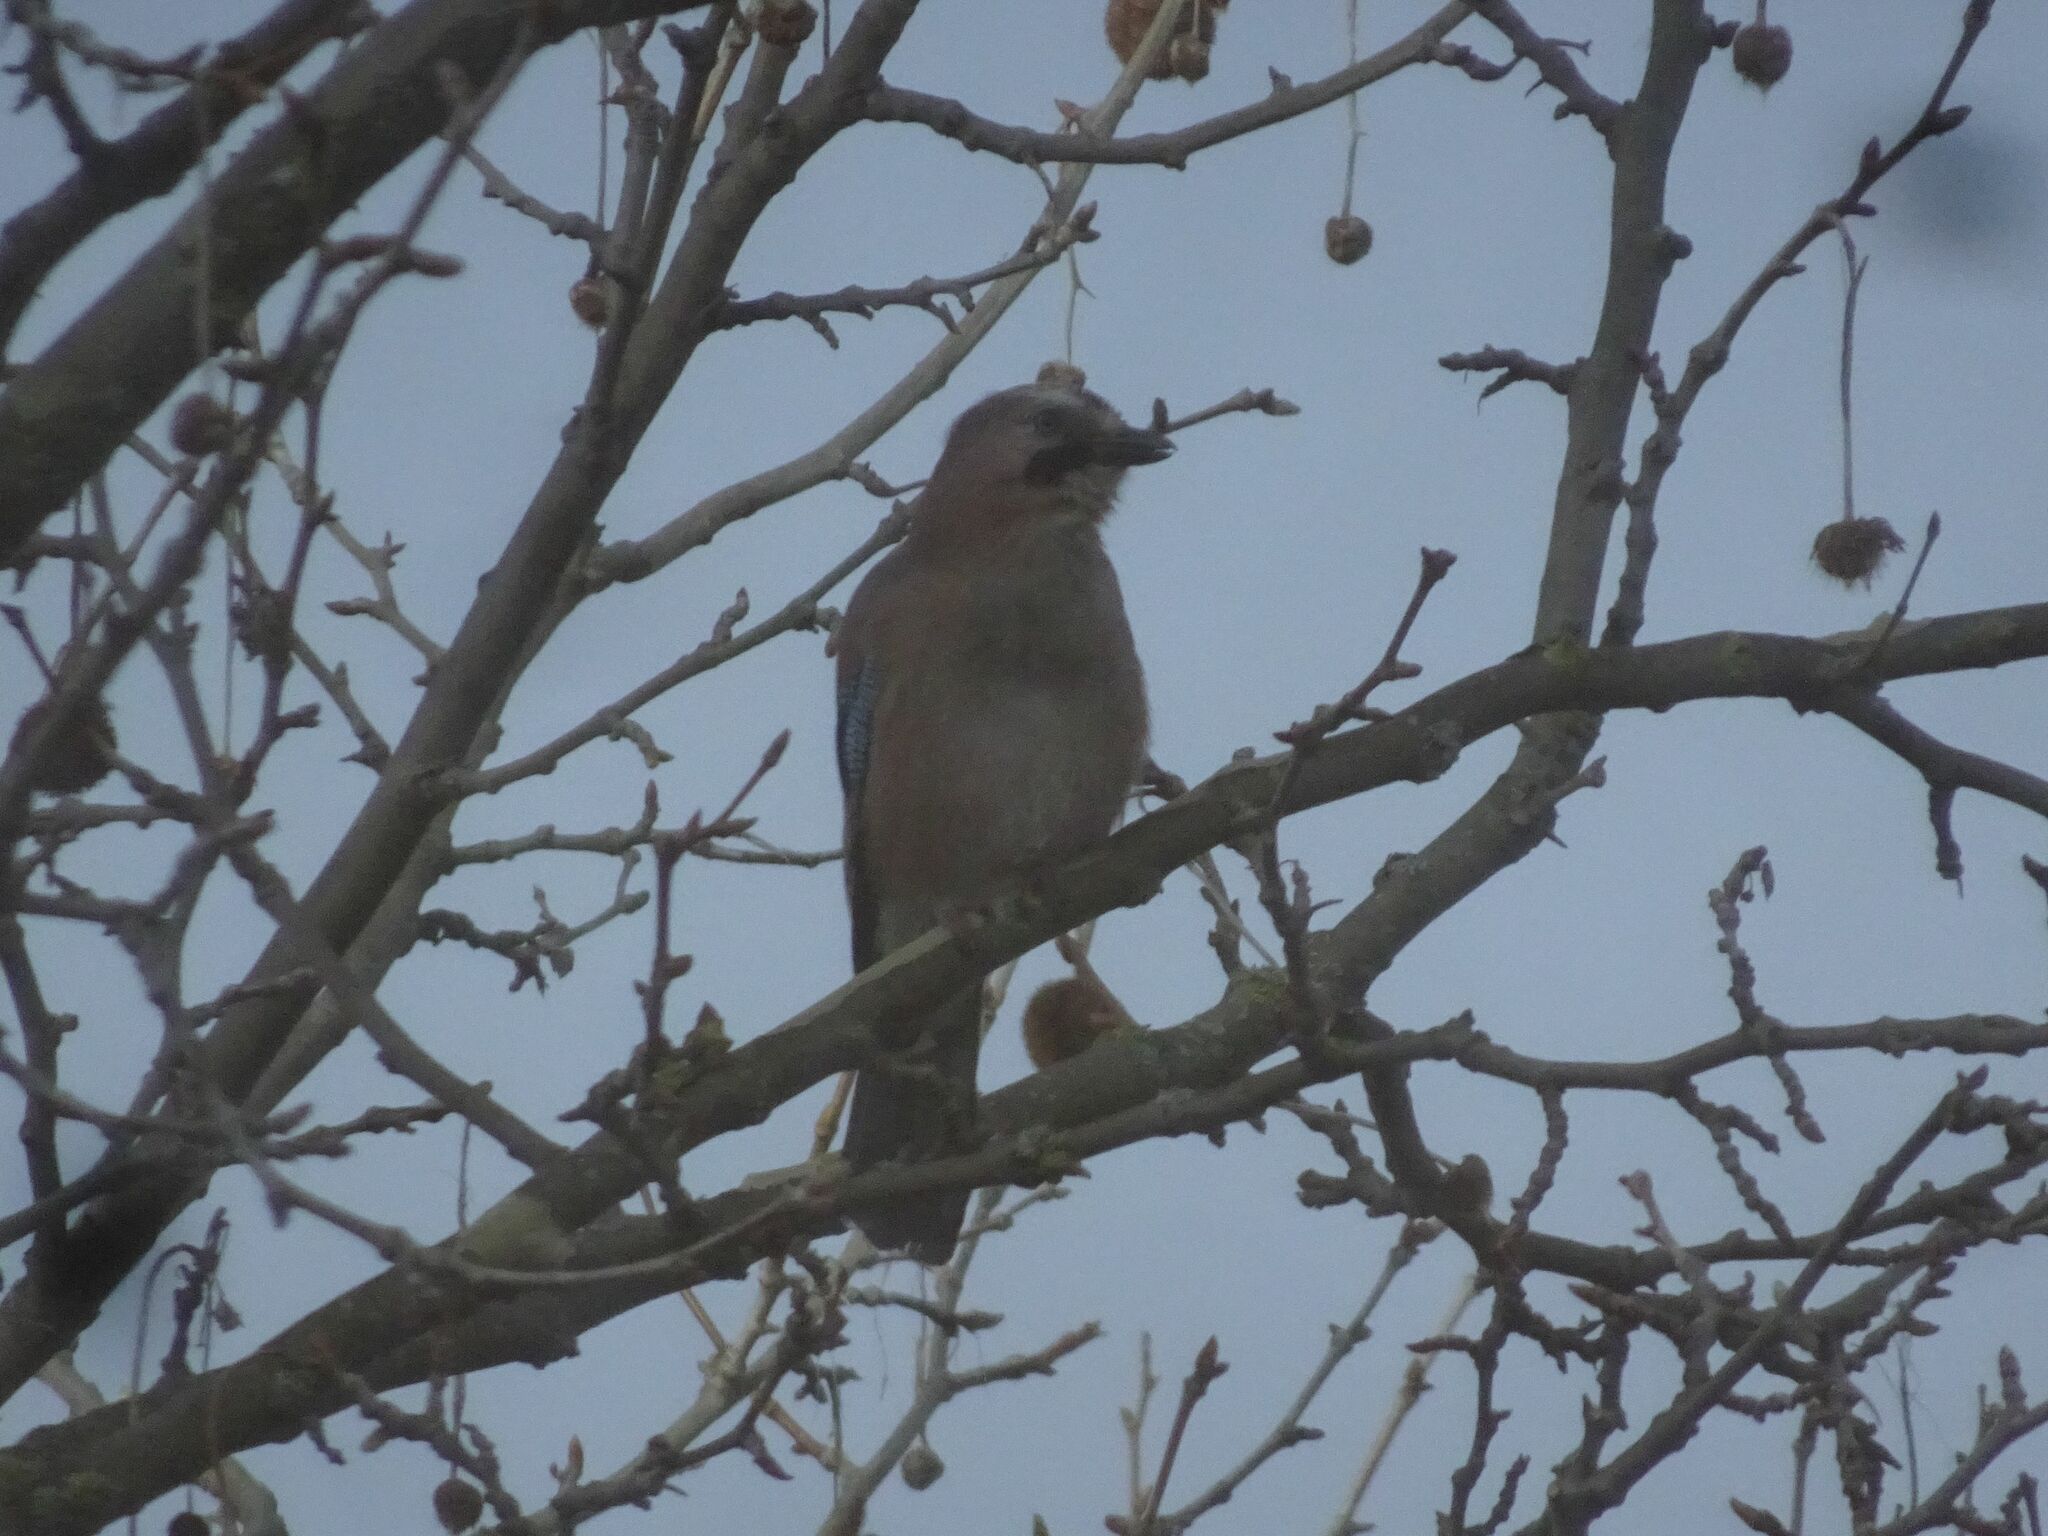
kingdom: Animalia
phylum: Chordata
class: Aves
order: Passeriformes
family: Corvidae
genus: Garrulus
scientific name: Garrulus glandarius
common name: Eurasian jay
